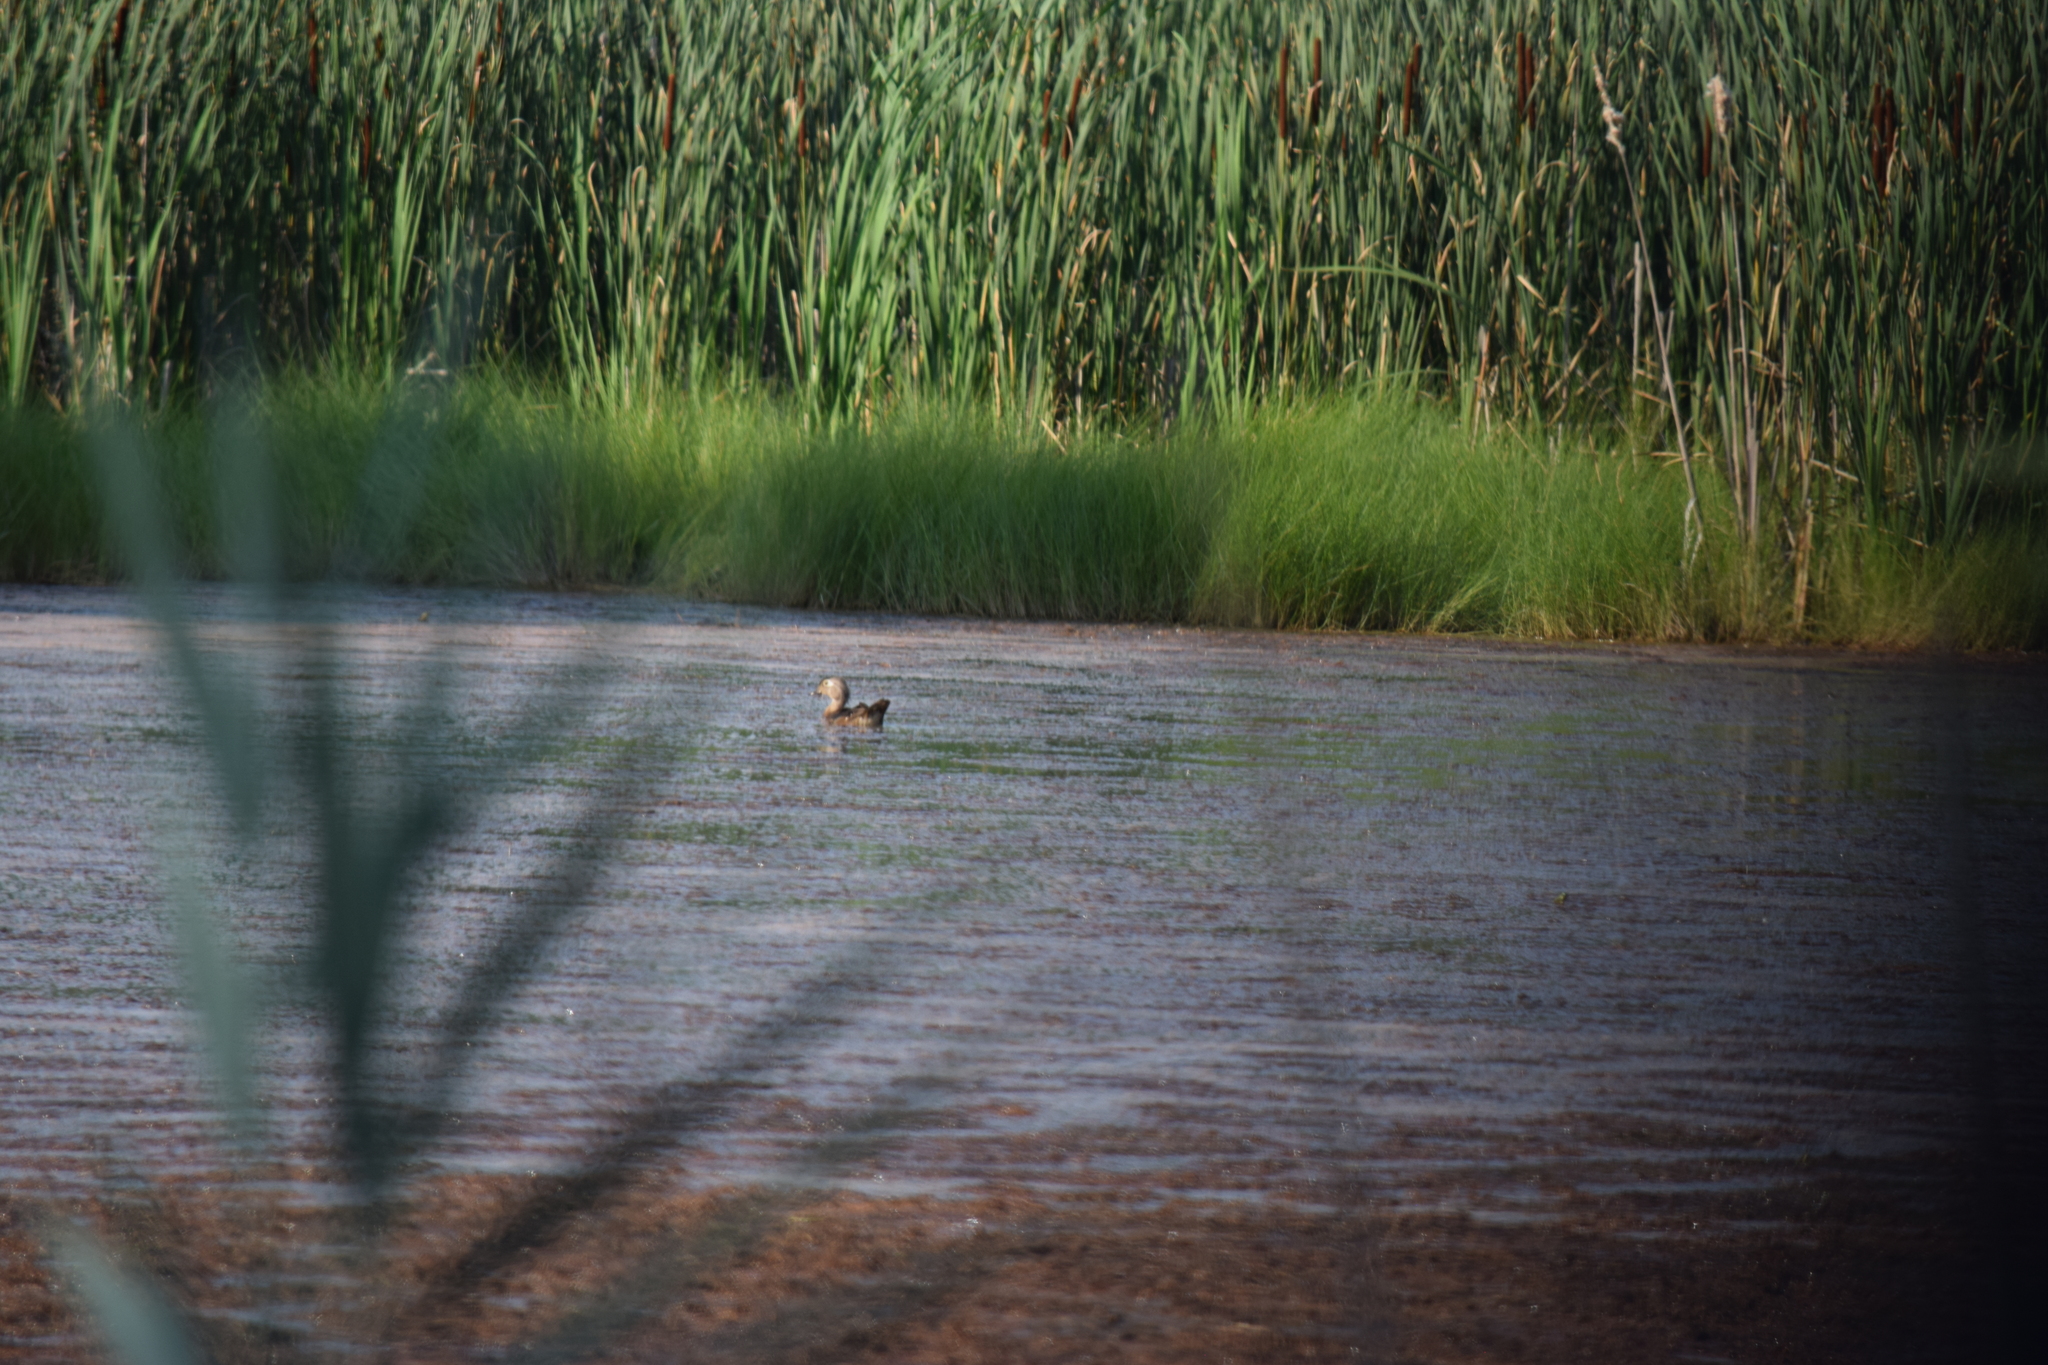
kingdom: Animalia
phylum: Chordata
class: Aves
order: Anseriformes
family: Anatidae
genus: Aix
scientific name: Aix sponsa
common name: Wood duck
